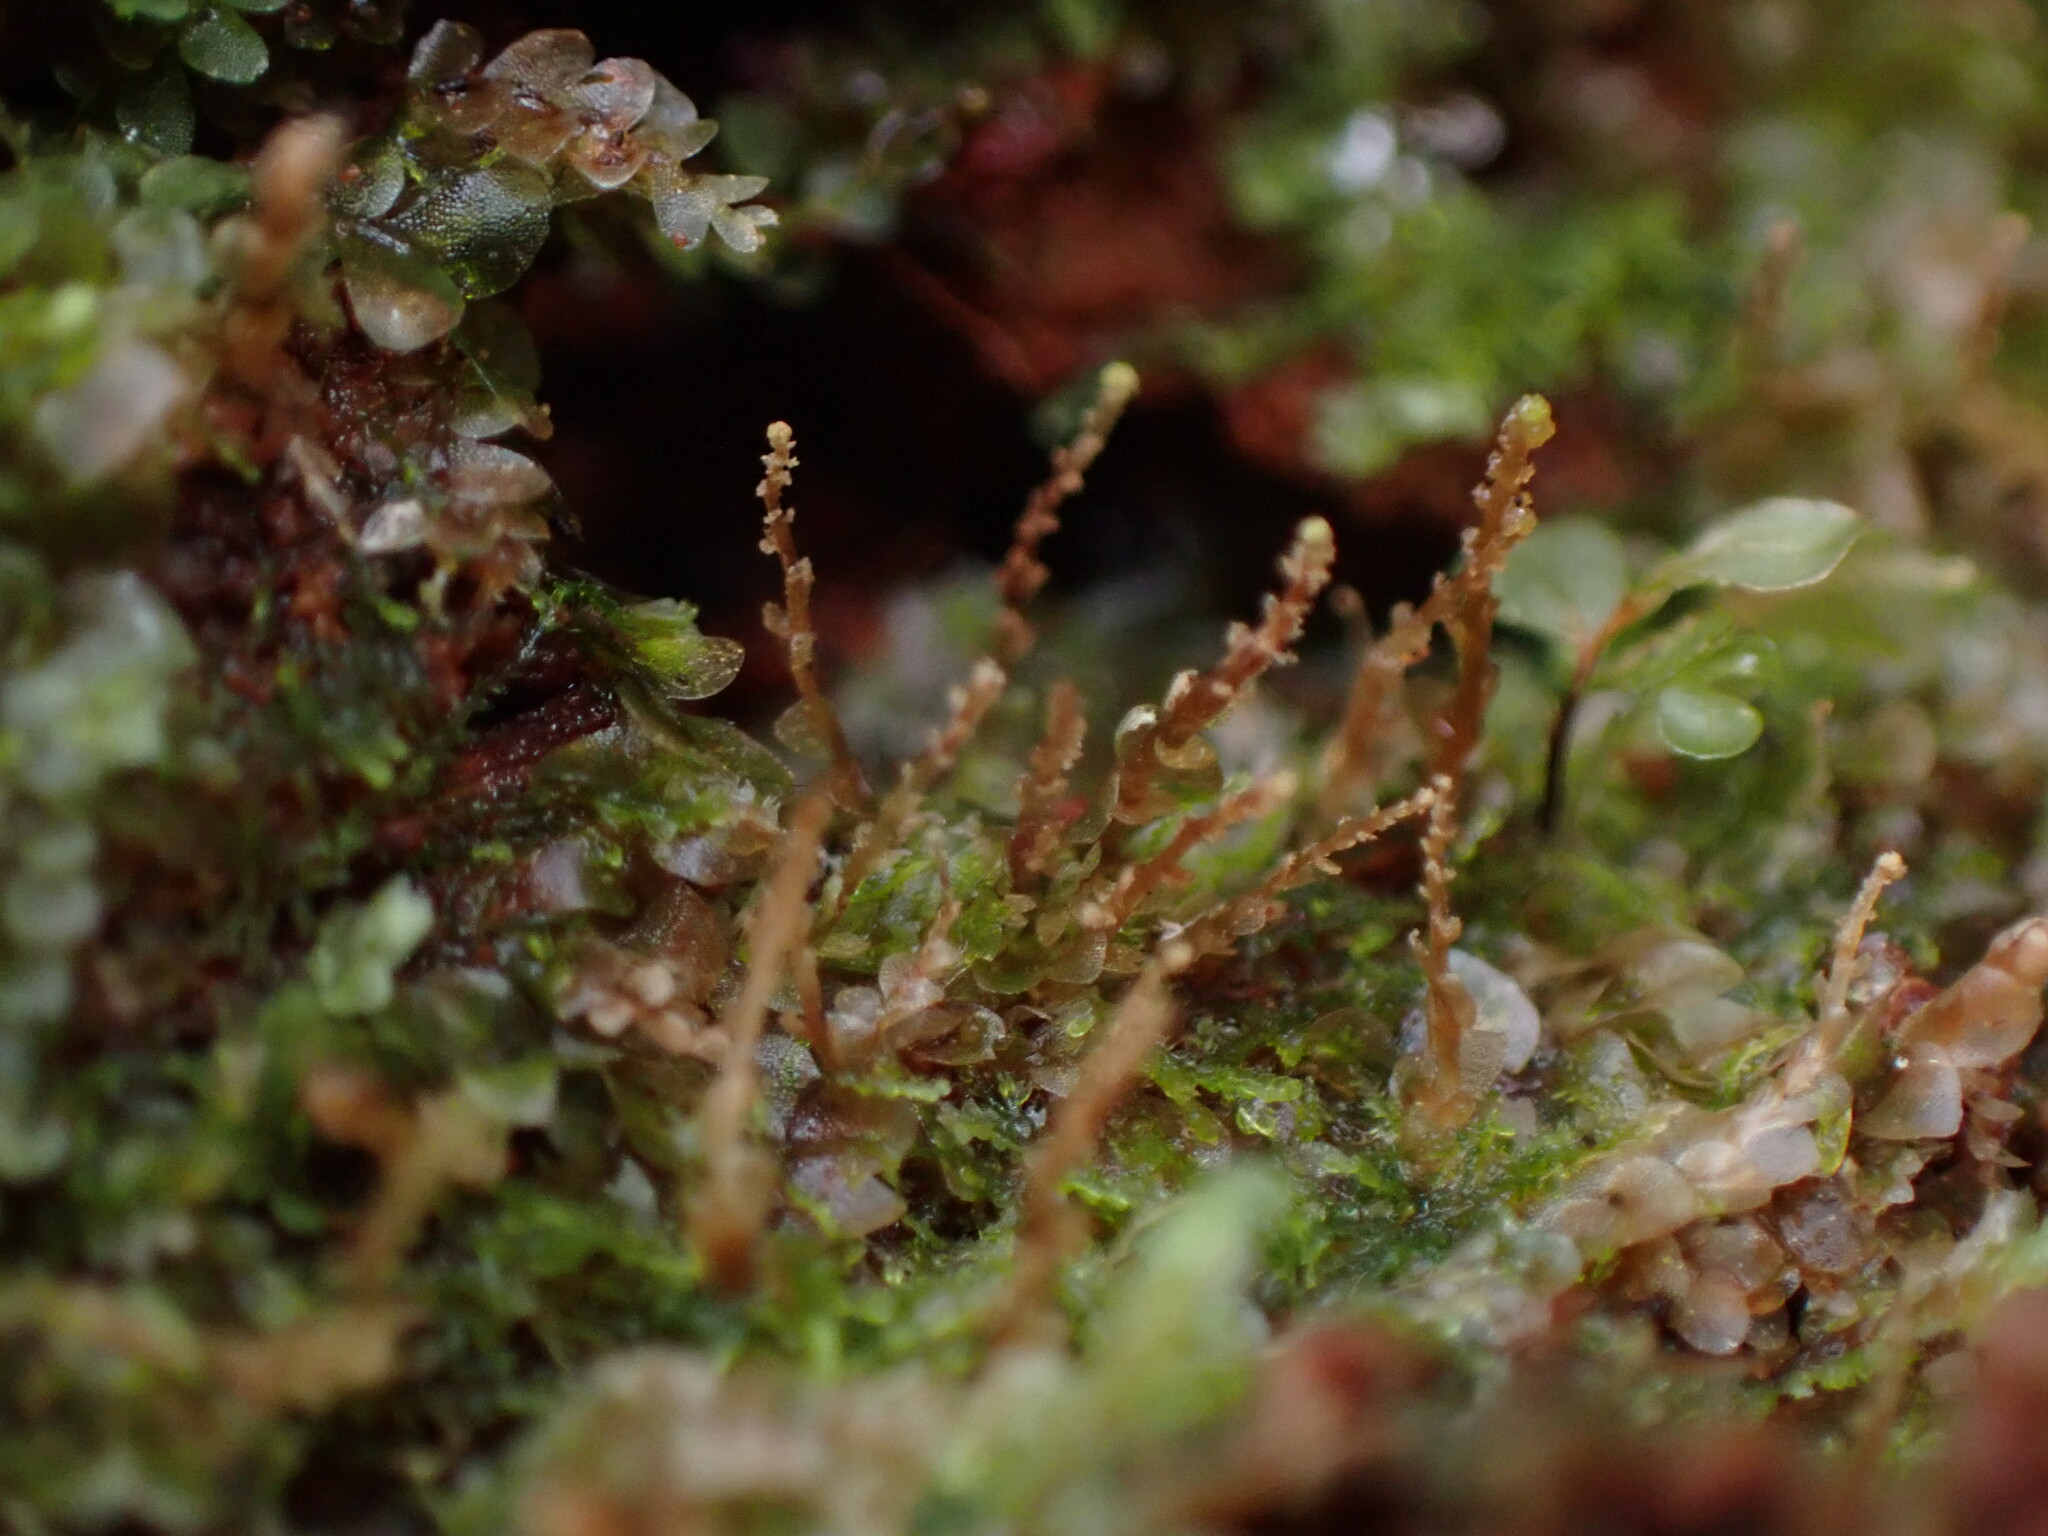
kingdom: Plantae
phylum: Bryophyta
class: Polytrichopsida
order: Tetraphidales
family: Tetraphidaceae
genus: Tetraphis
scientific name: Tetraphis pellucida
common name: Common four-toothed moss
